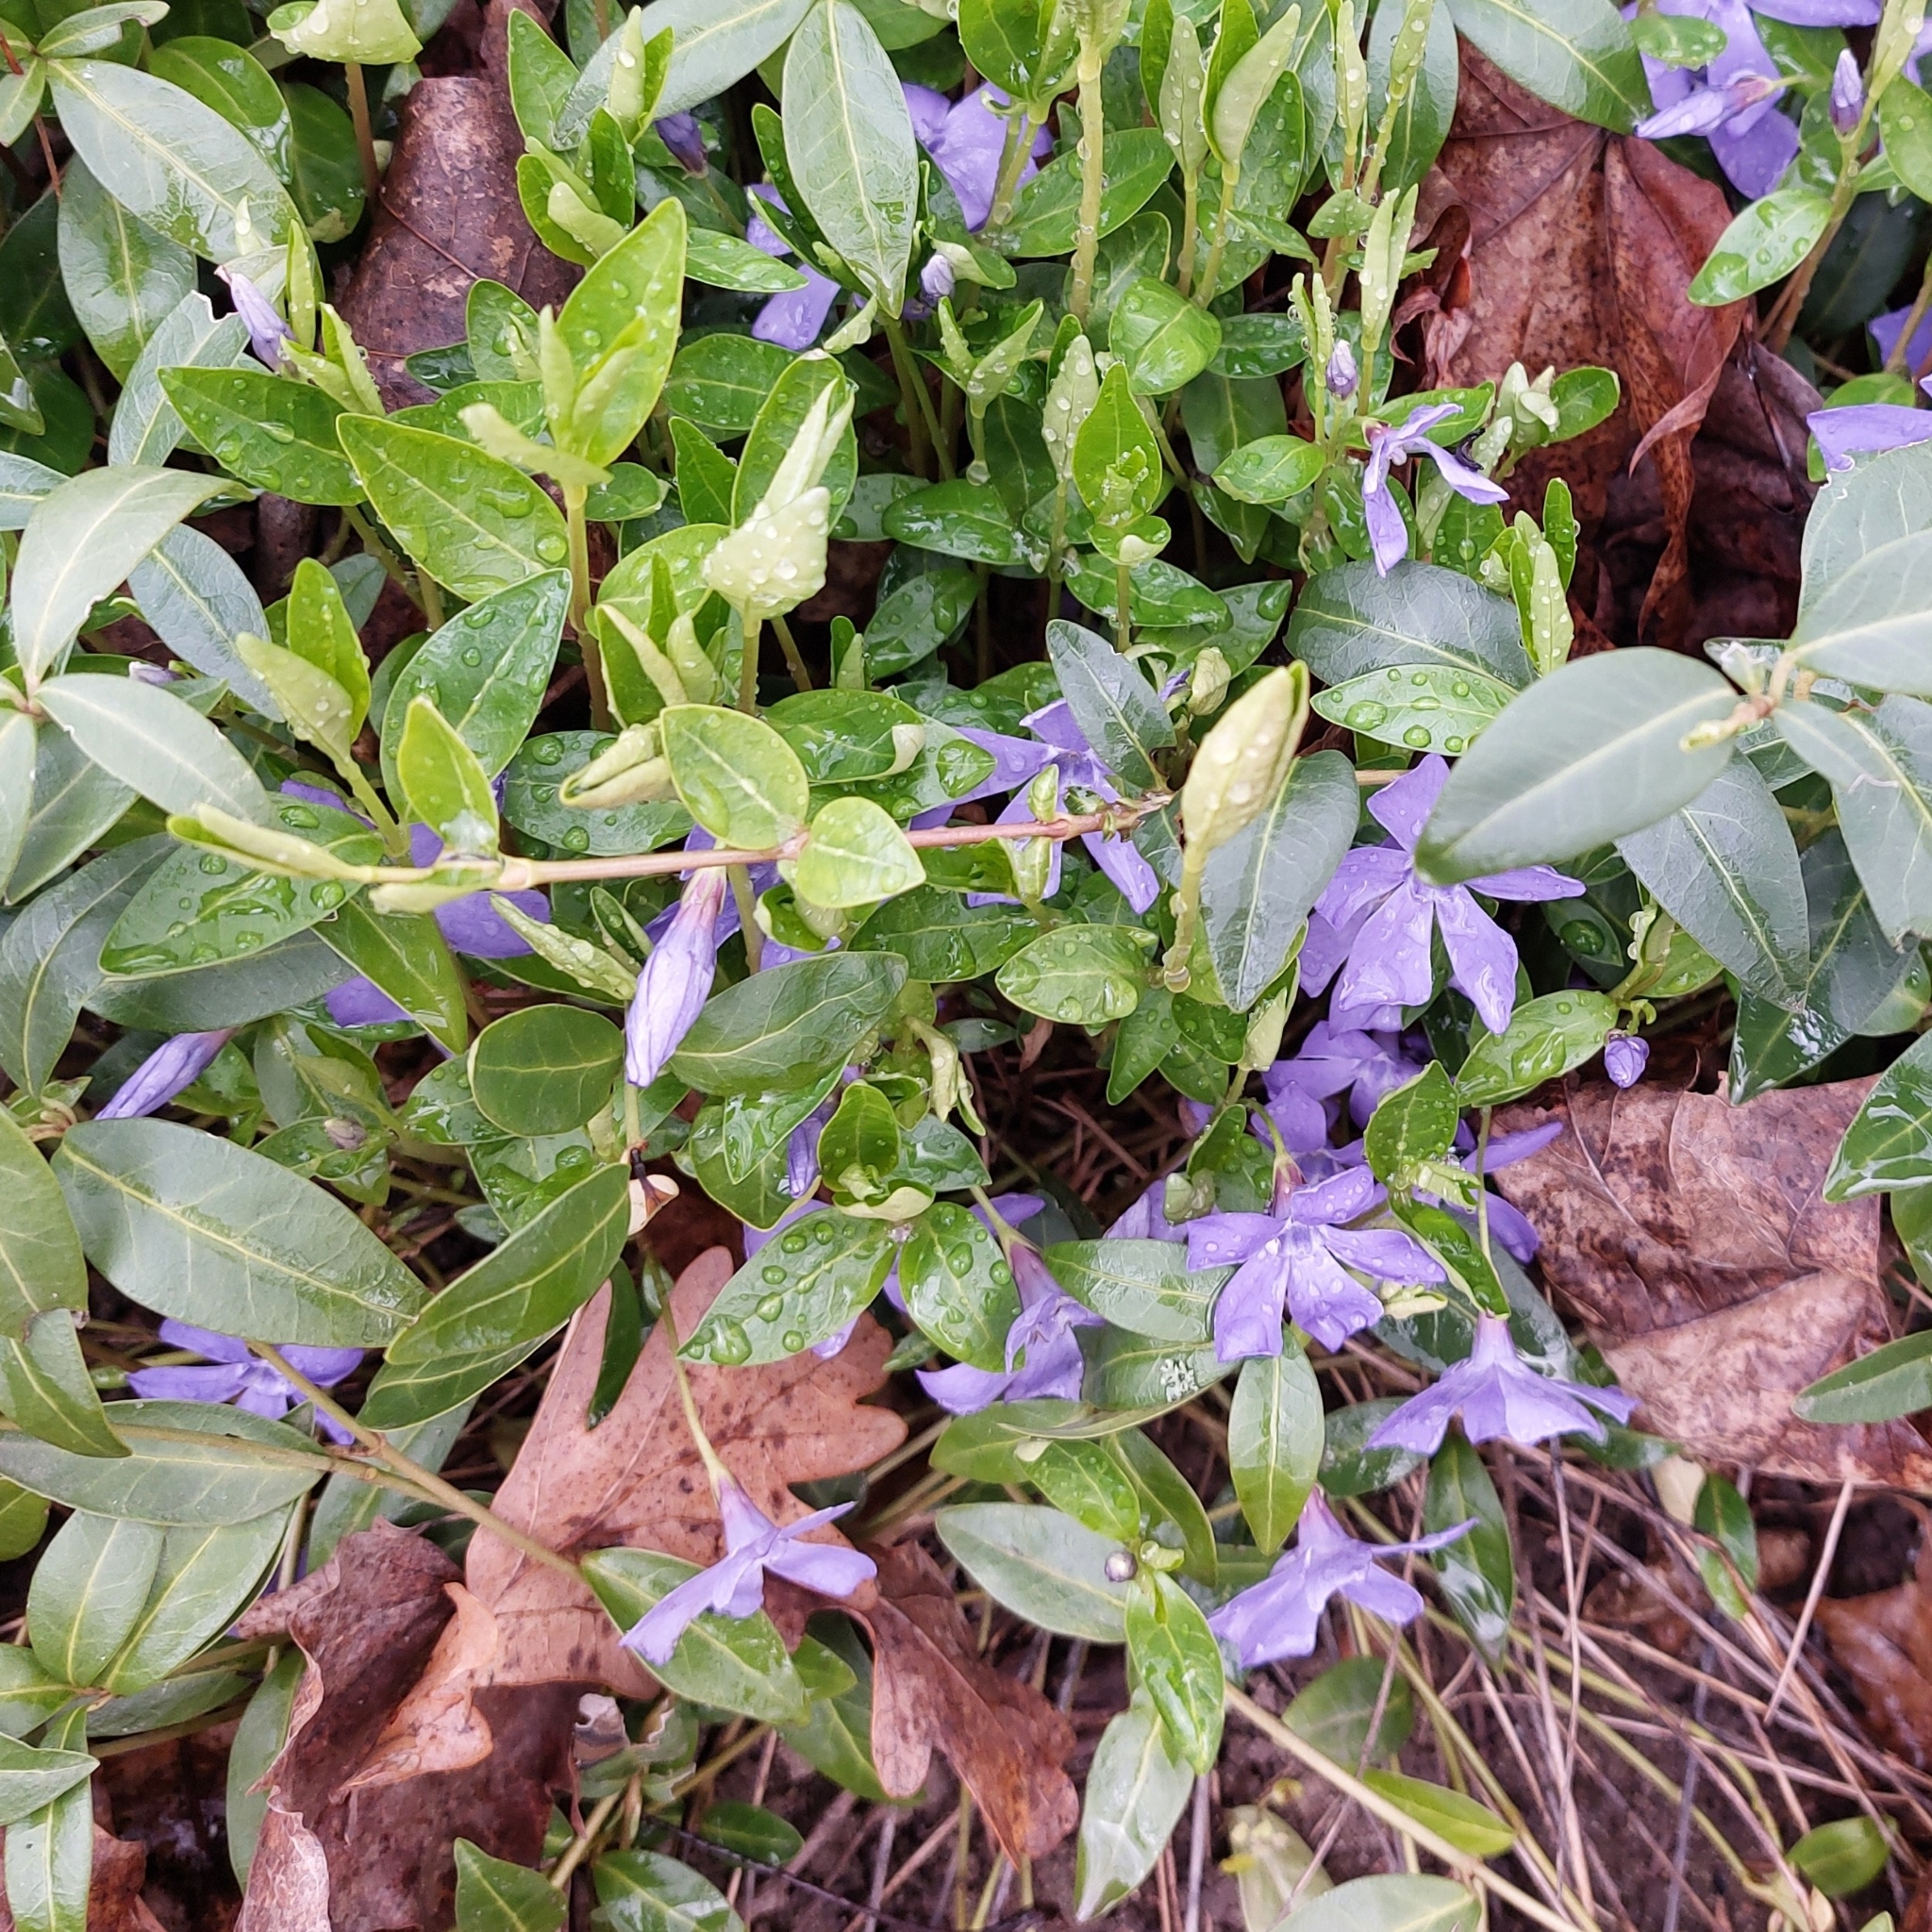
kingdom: Plantae
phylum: Tracheophyta
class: Magnoliopsida
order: Gentianales
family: Apocynaceae
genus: Vinca
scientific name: Vinca minor
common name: Lesser periwinkle
